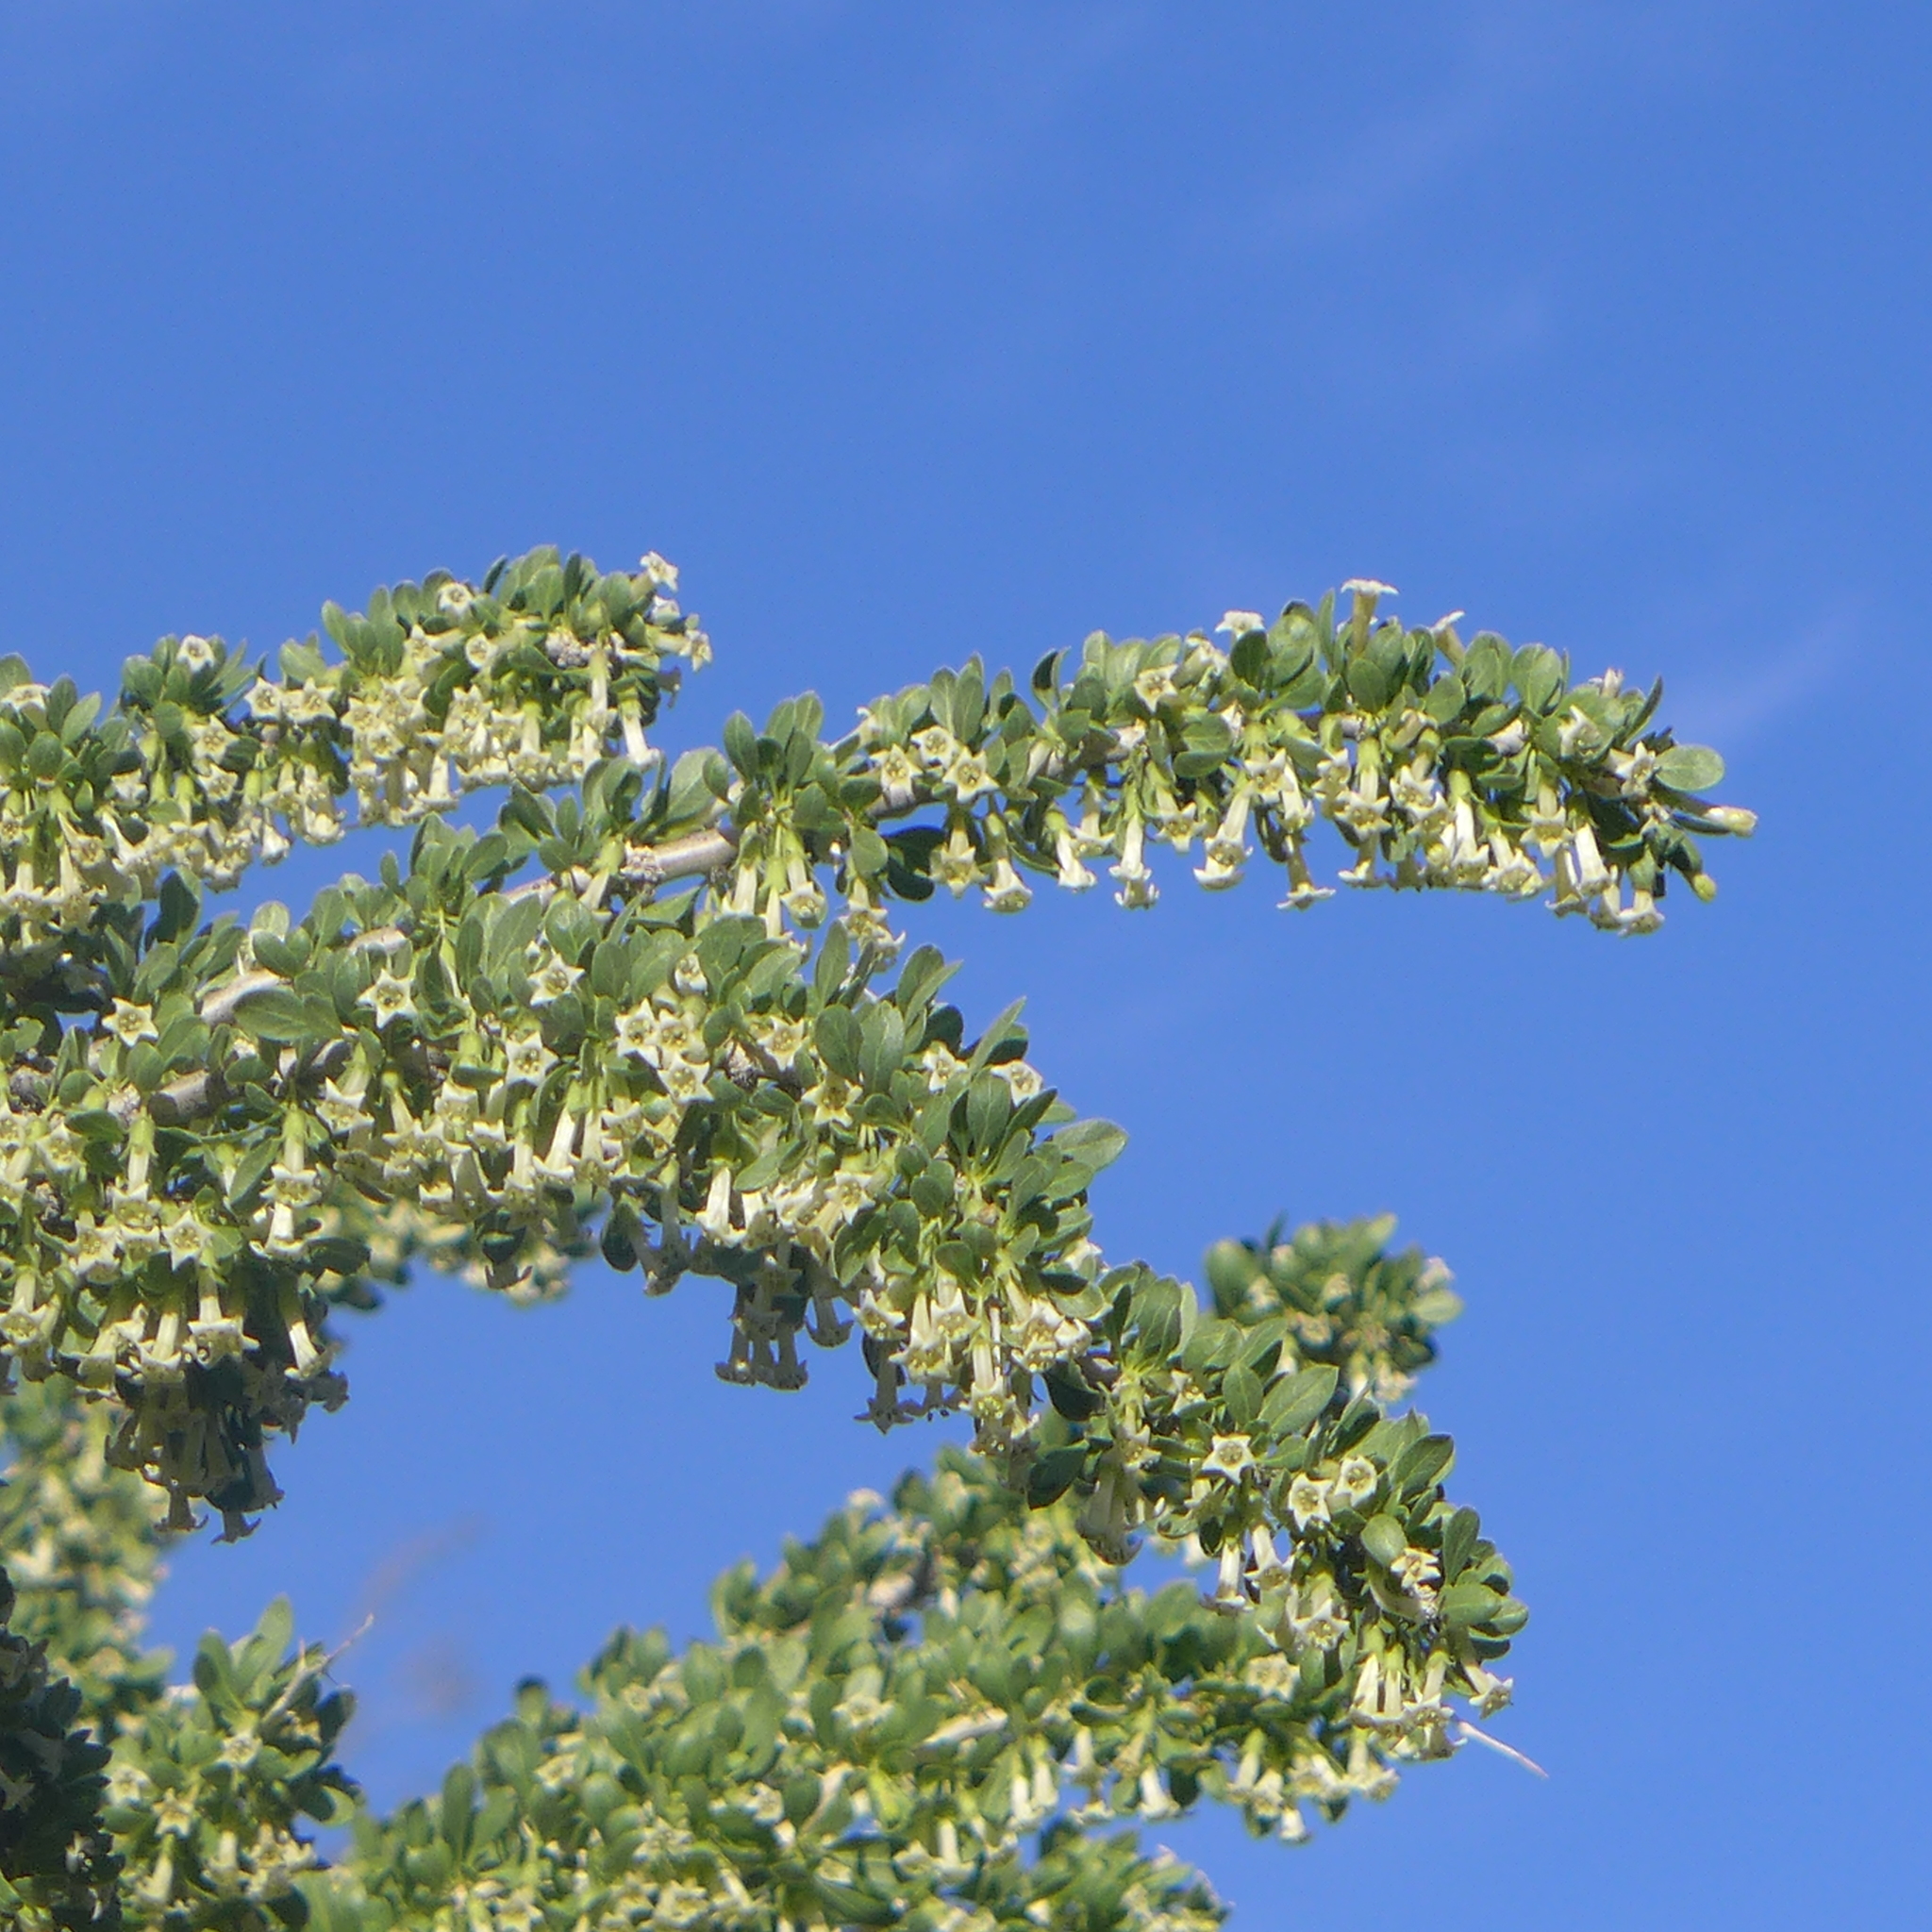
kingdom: Plantae
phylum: Tracheophyta
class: Magnoliopsida
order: Solanales
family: Solanaceae
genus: Lycium
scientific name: Lycium cooperi
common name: Peachthorn
